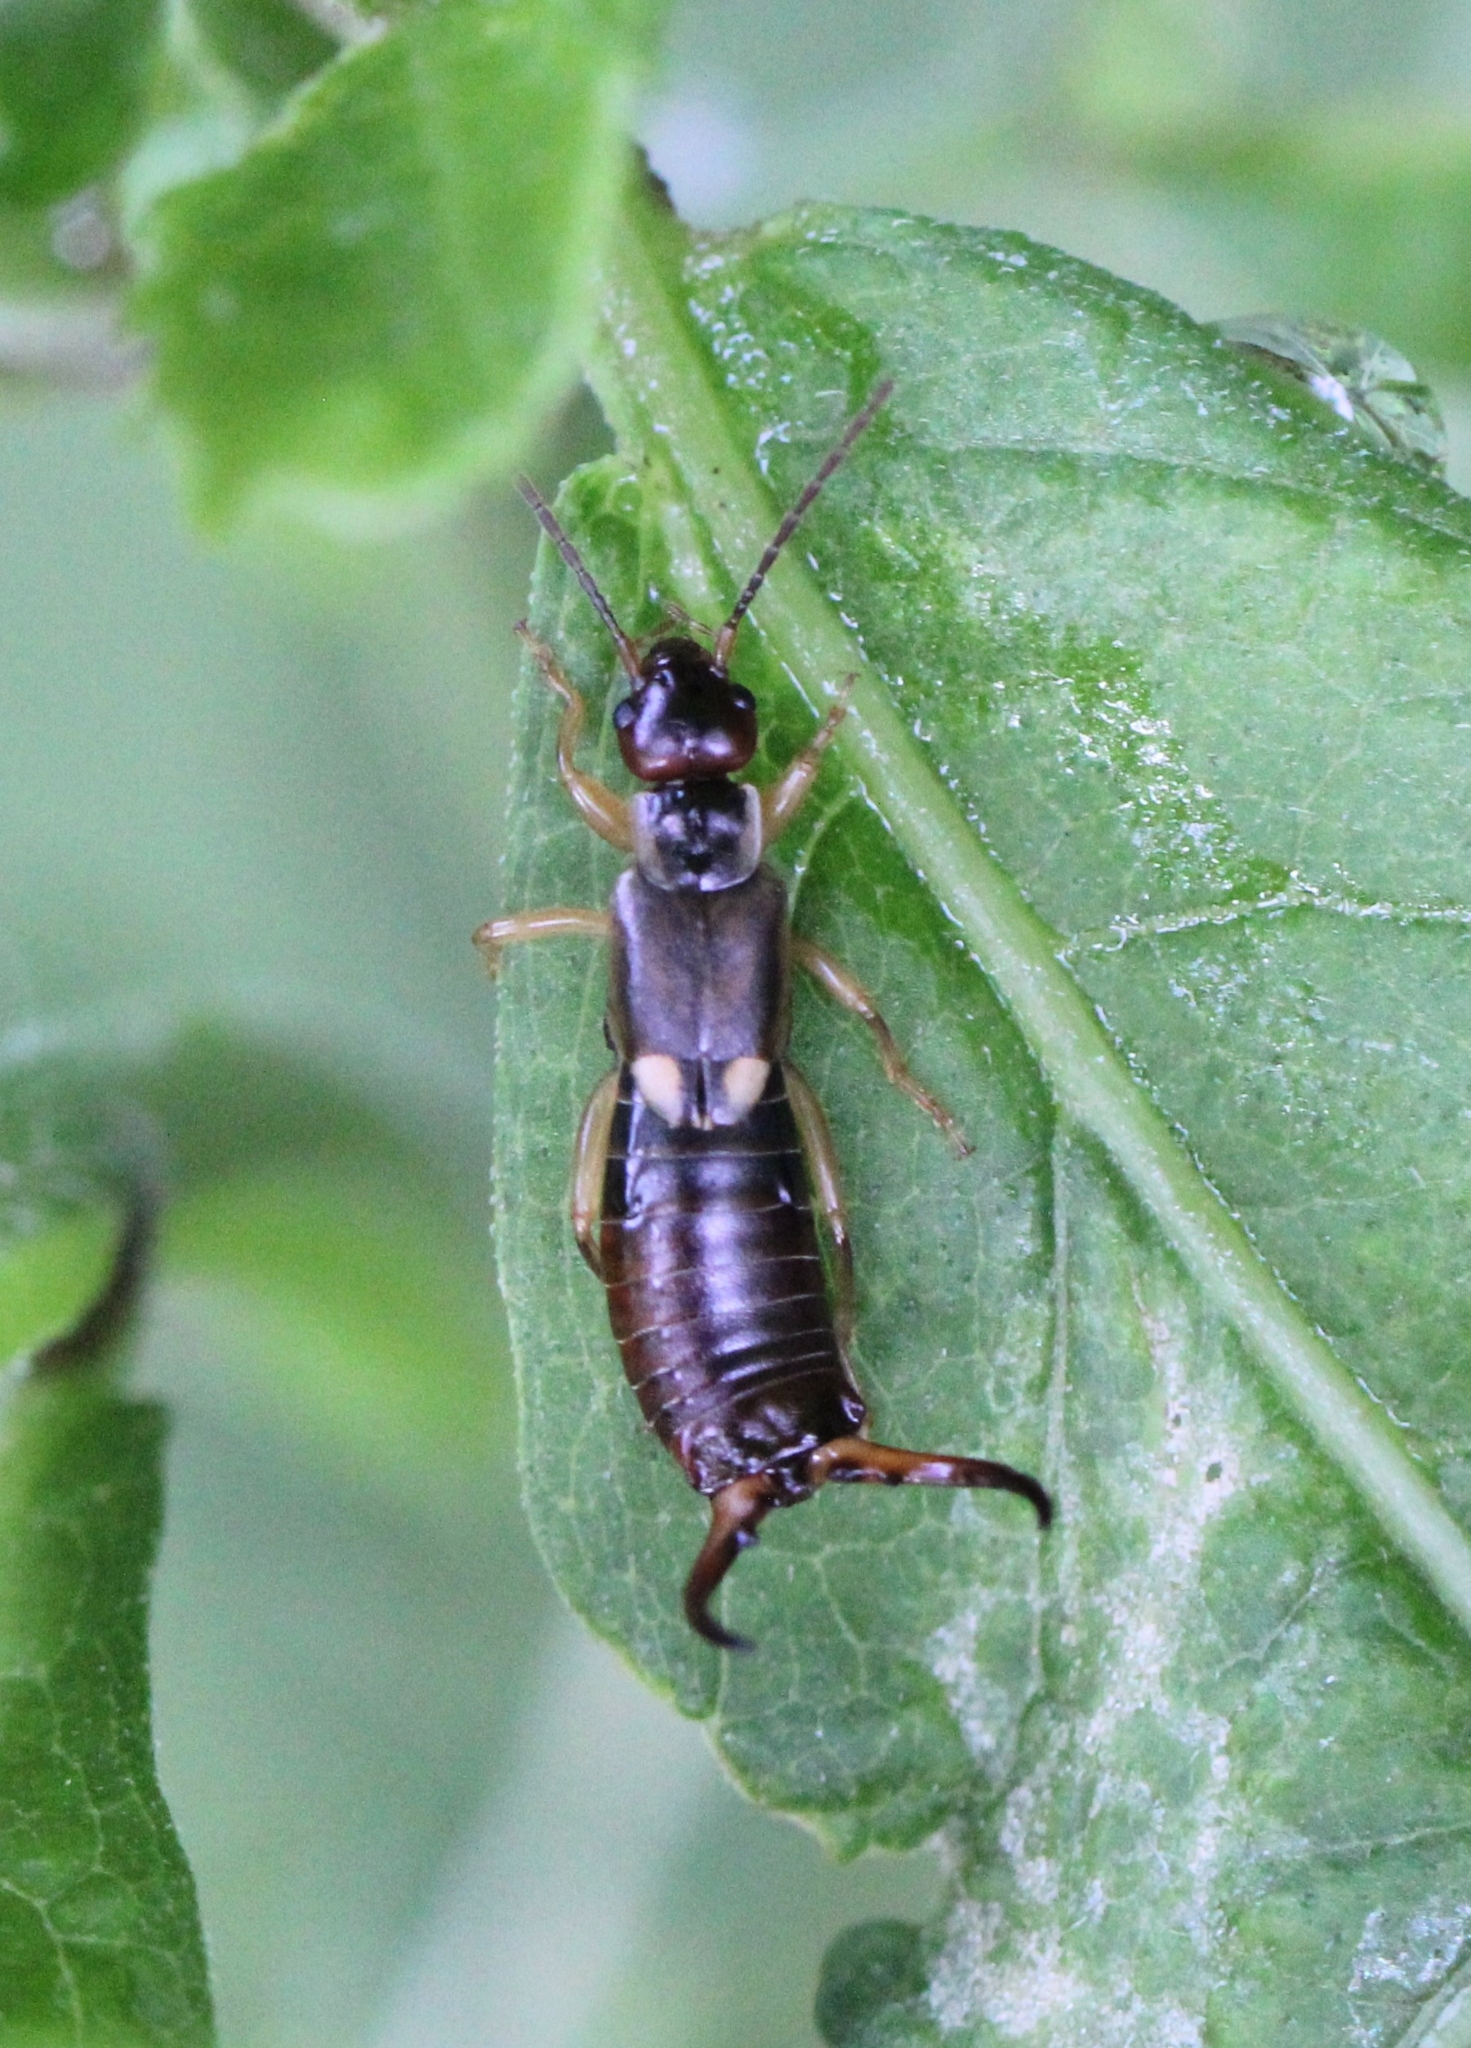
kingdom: Animalia
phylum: Arthropoda
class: Insecta
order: Dermaptera
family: Forficulidae
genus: Forficula
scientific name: Forficula
